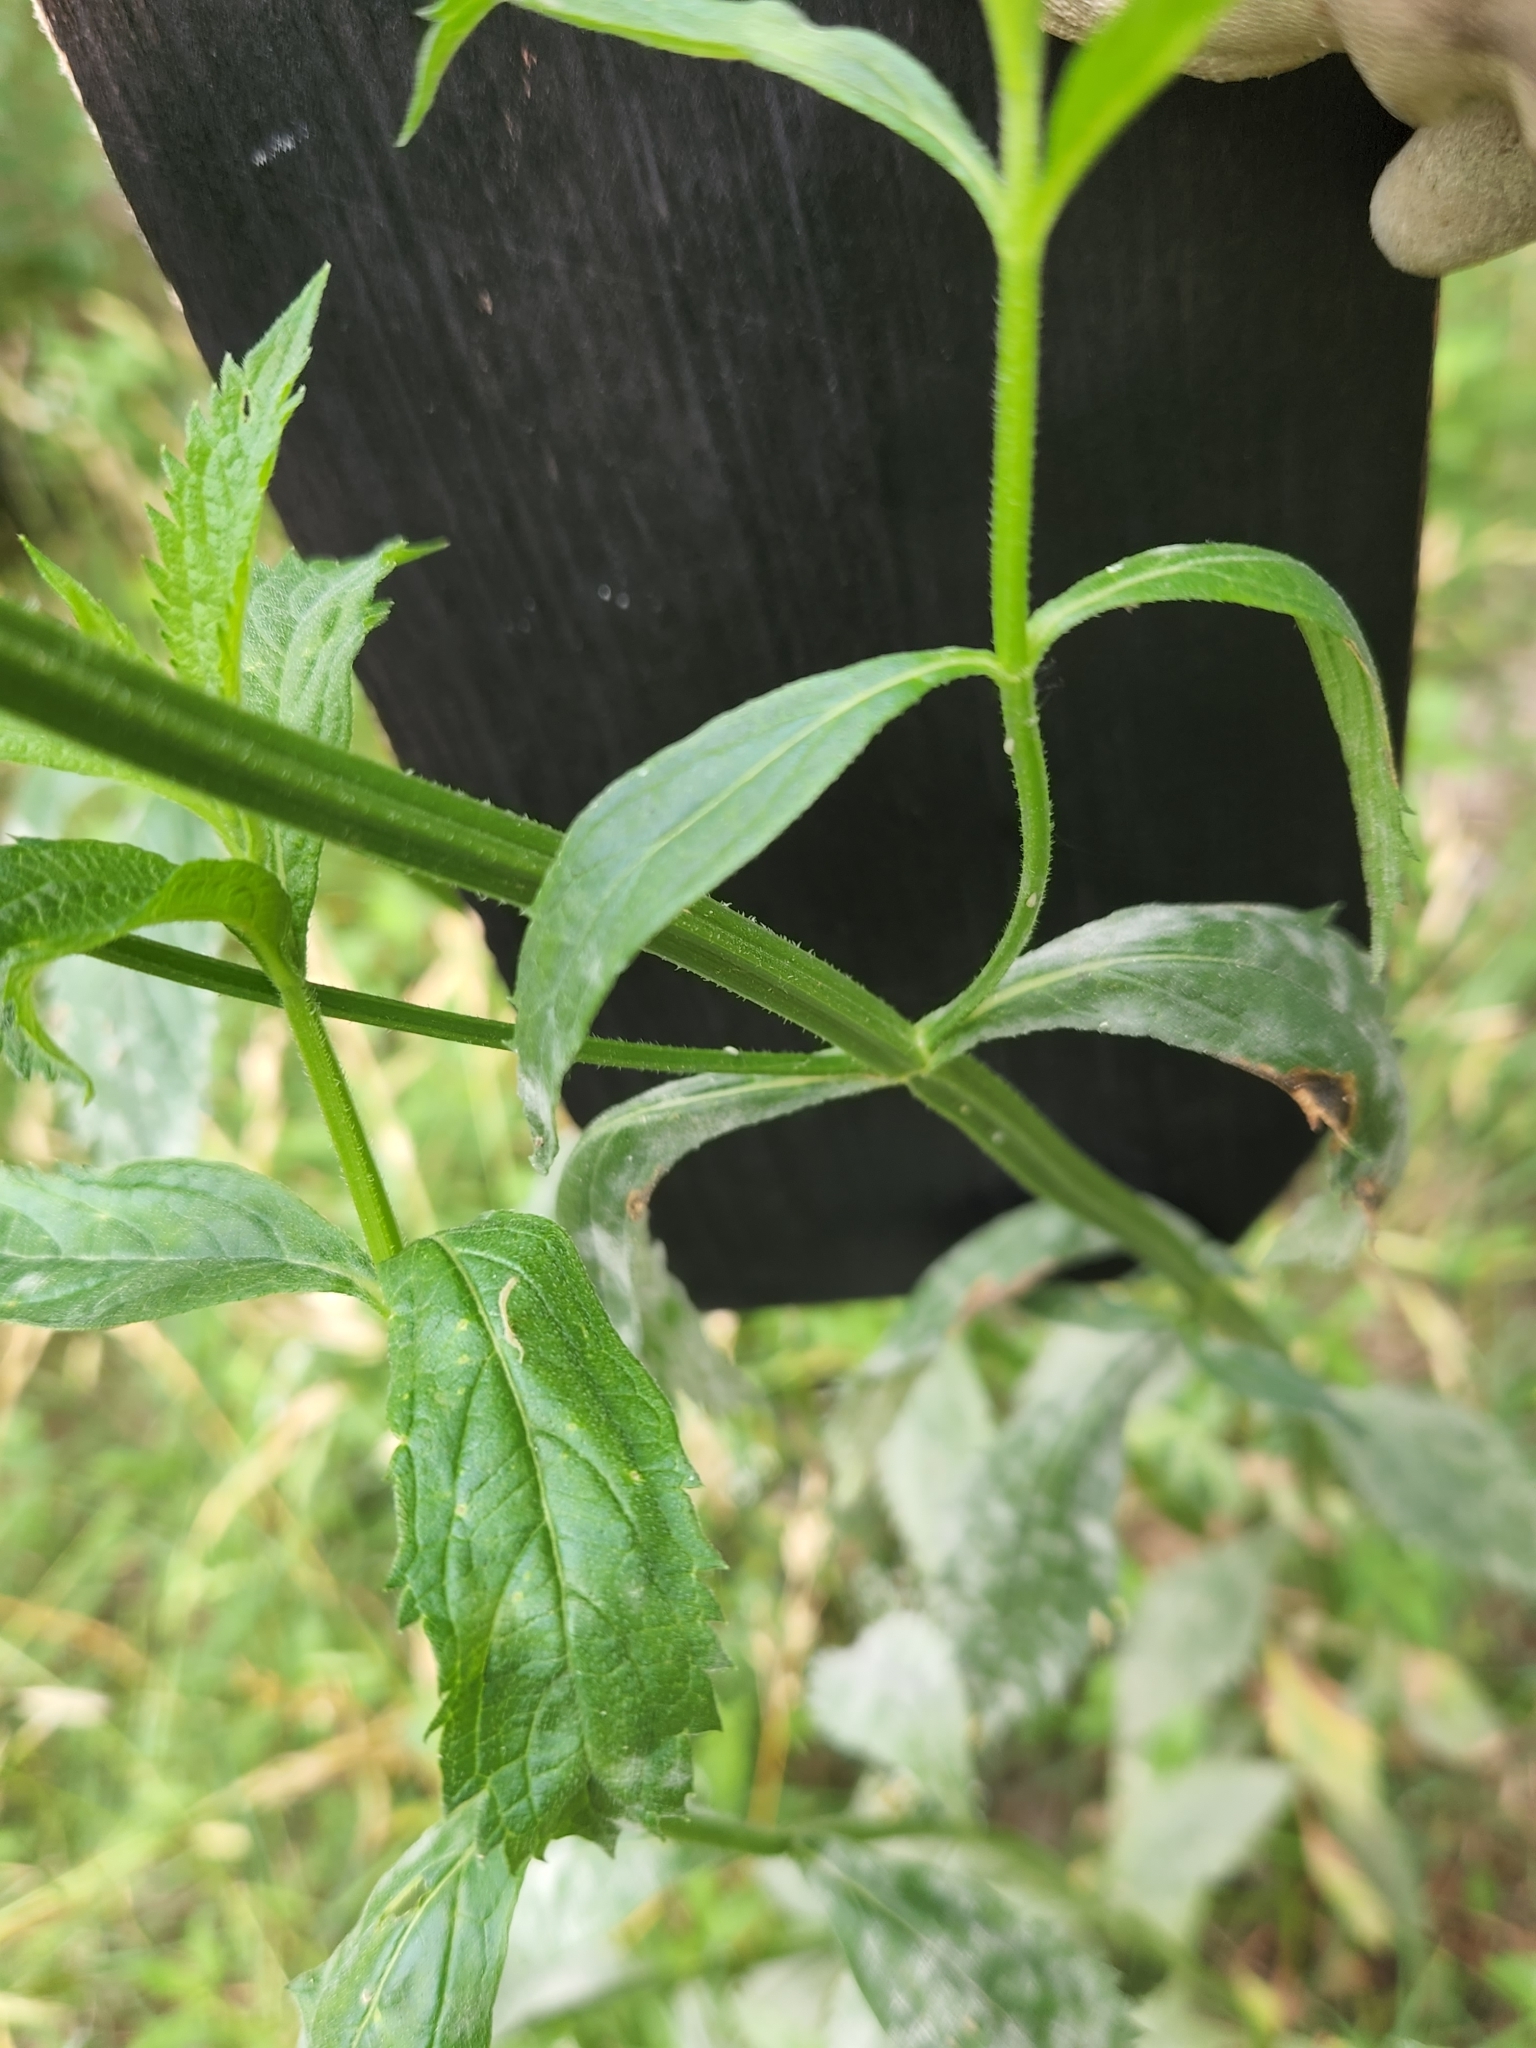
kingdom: Plantae
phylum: Tracheophyta
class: Magnoliopsida
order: Lamiales
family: Verbenaceae
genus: Verbena
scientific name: Verbena brasiliensis
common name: Brazilian vervain
